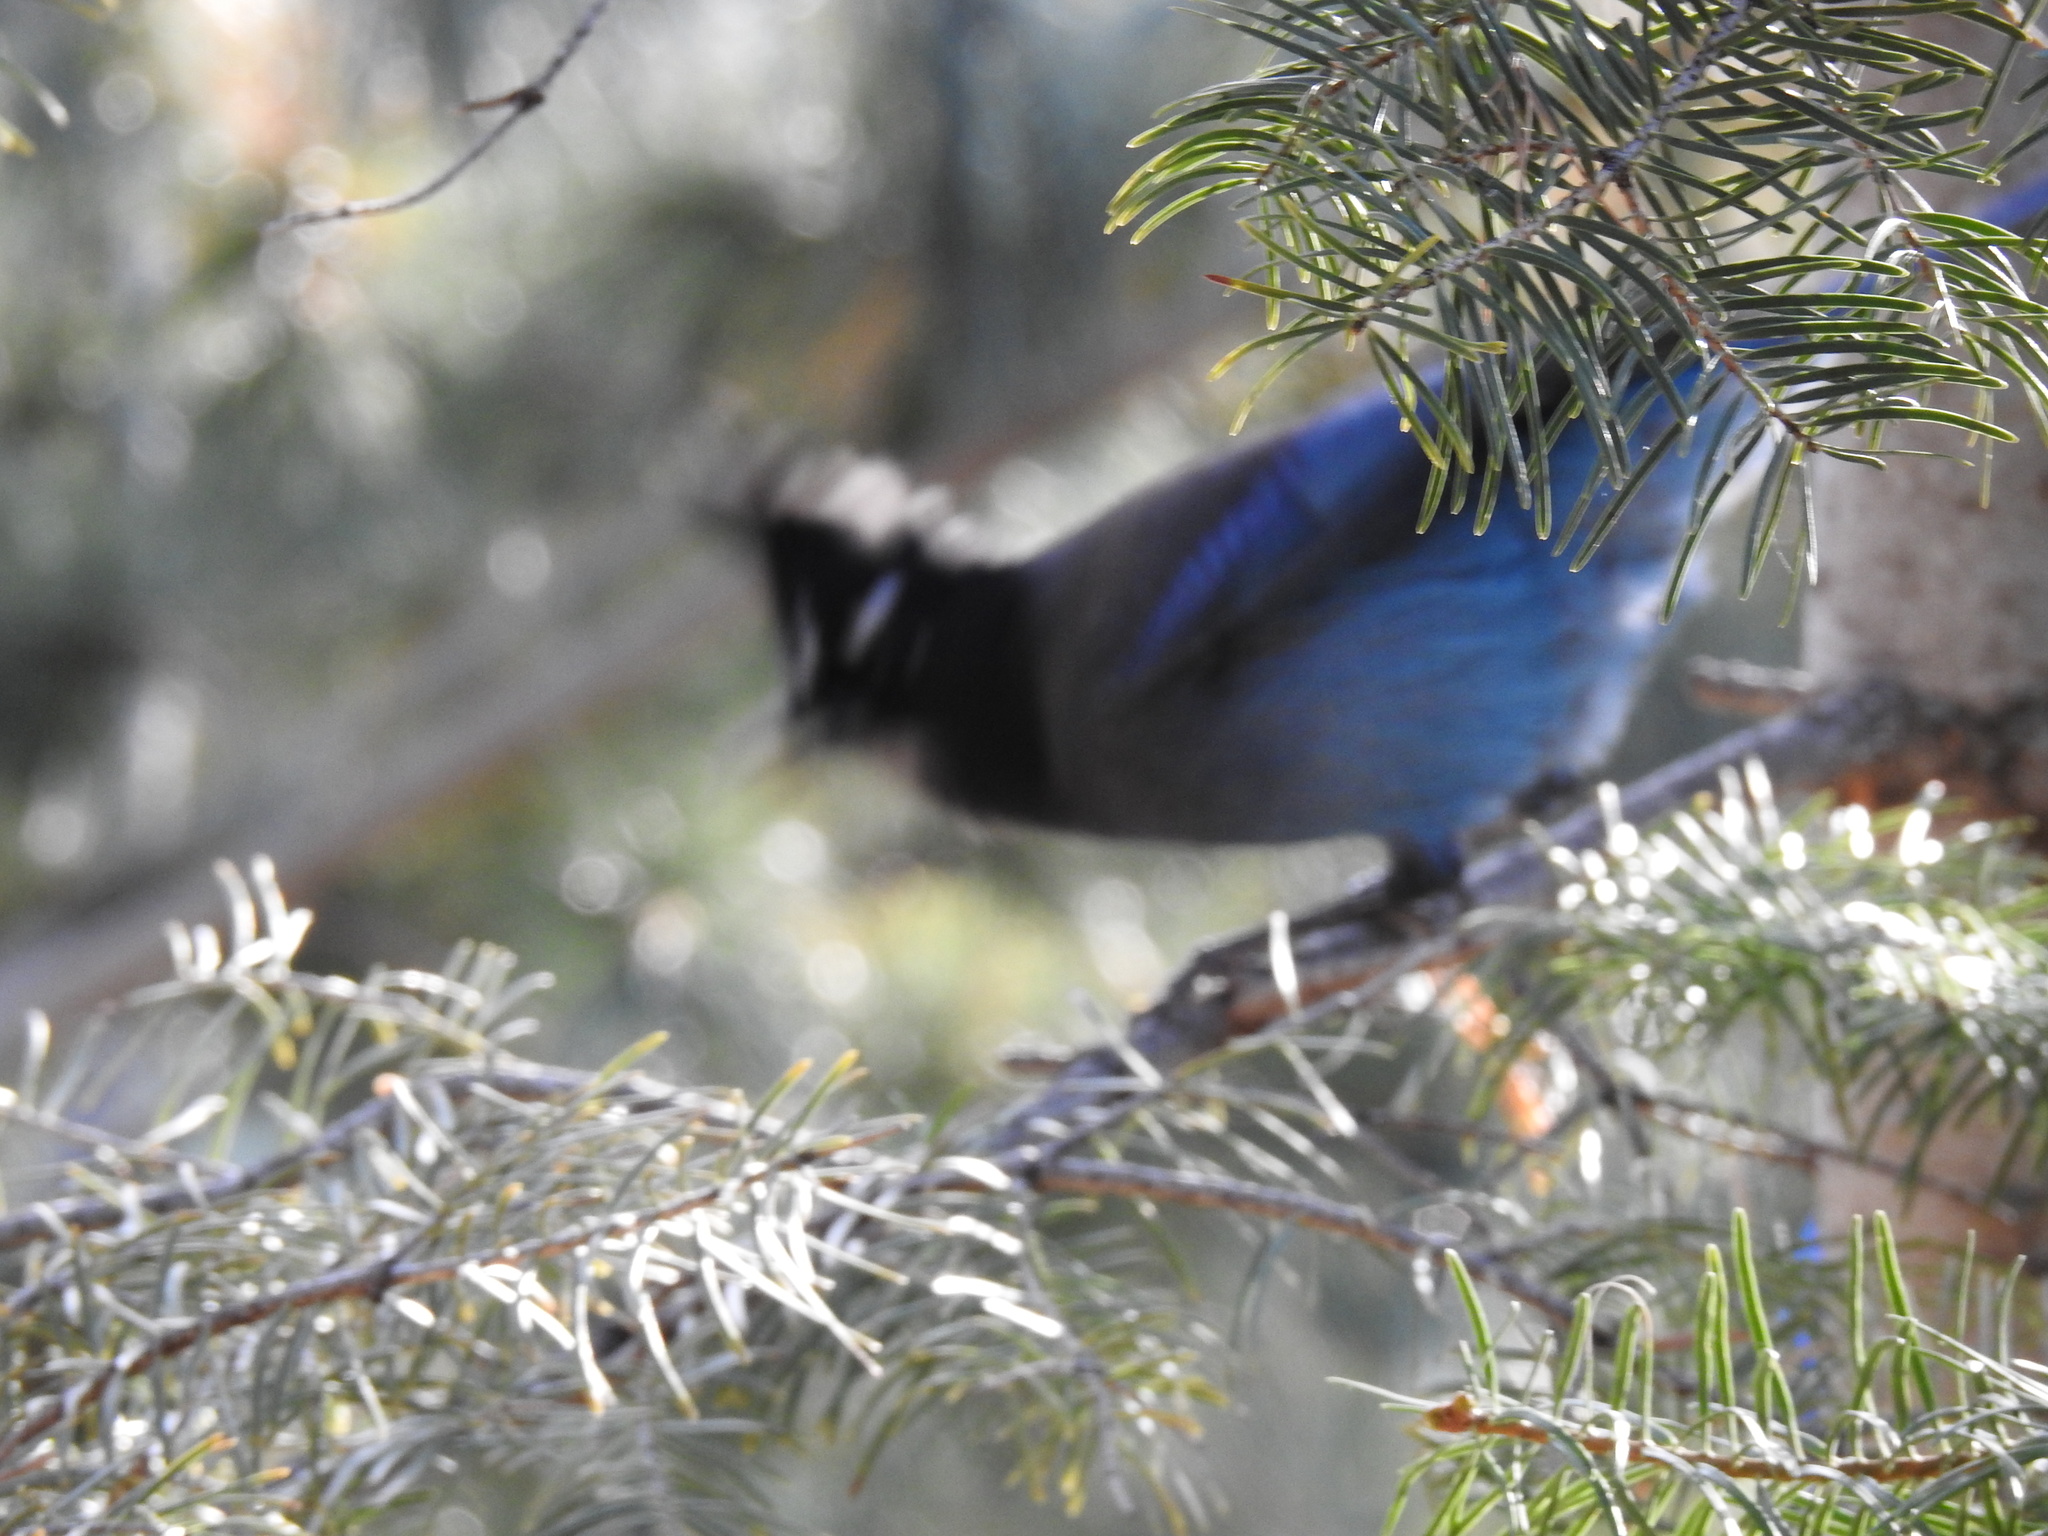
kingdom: Animalia
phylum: Chordata
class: Aves
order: Passeriformes
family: Corvidae
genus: Cyanocitta
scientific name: Cyanocitta stelleri
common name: Steller's jay
